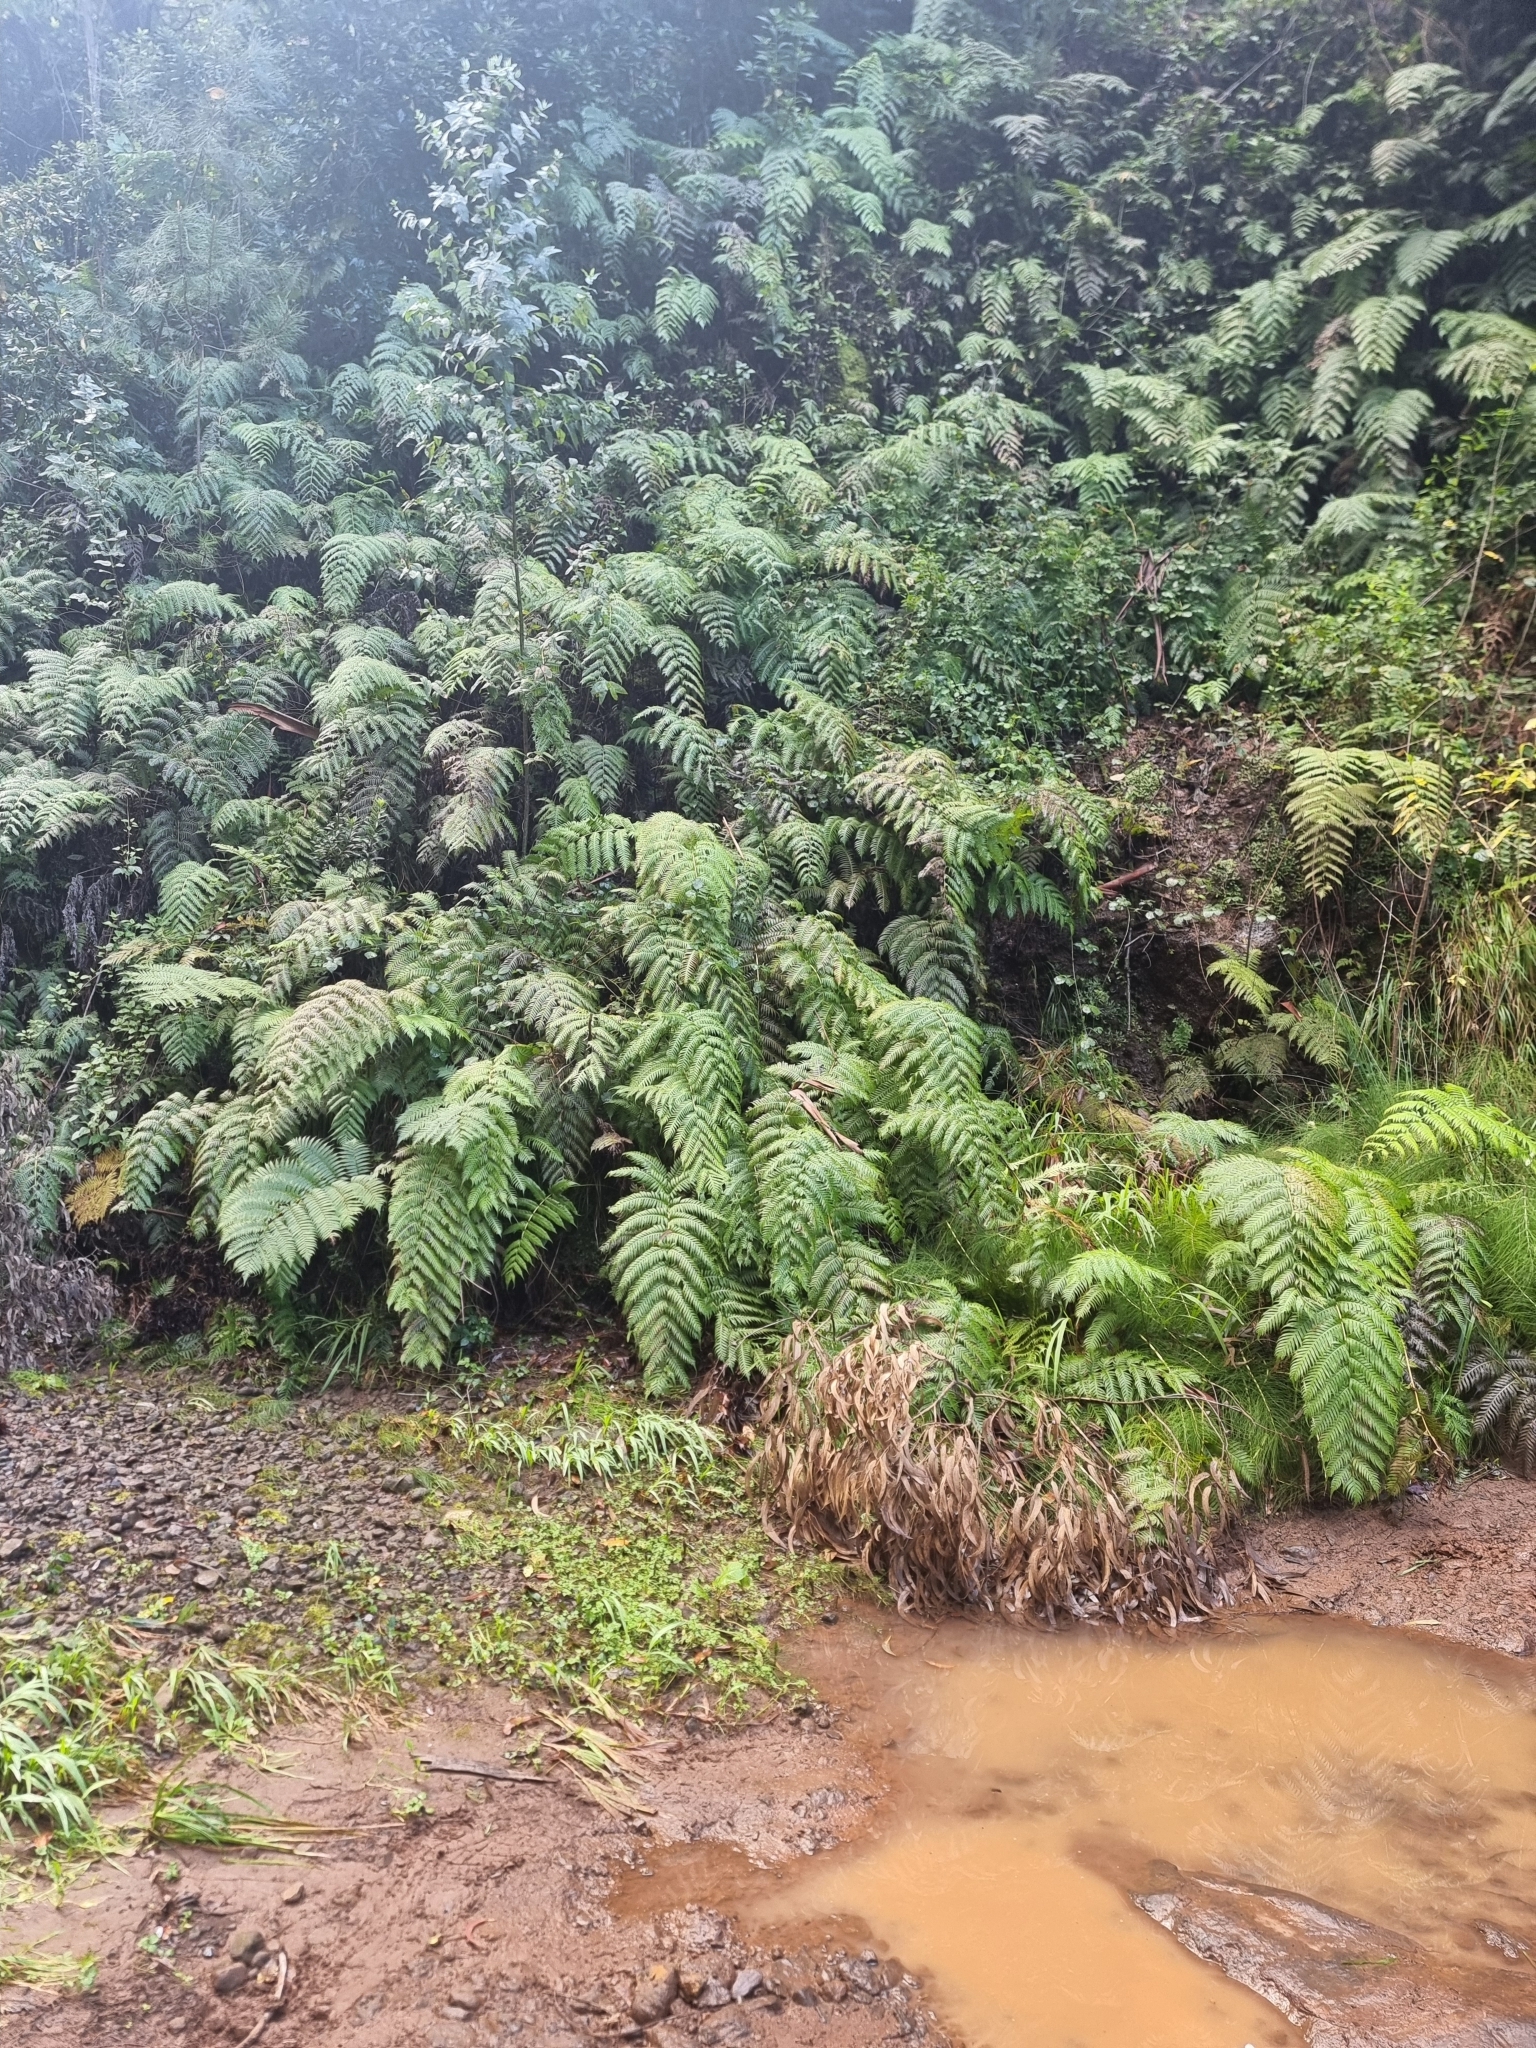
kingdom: Plantae
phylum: Tracheophyta
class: Polypodiopsida
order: Polypodiales
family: Blechnaceae
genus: Woodwardia
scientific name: Woodwardia radicans
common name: Rooting chainfern
